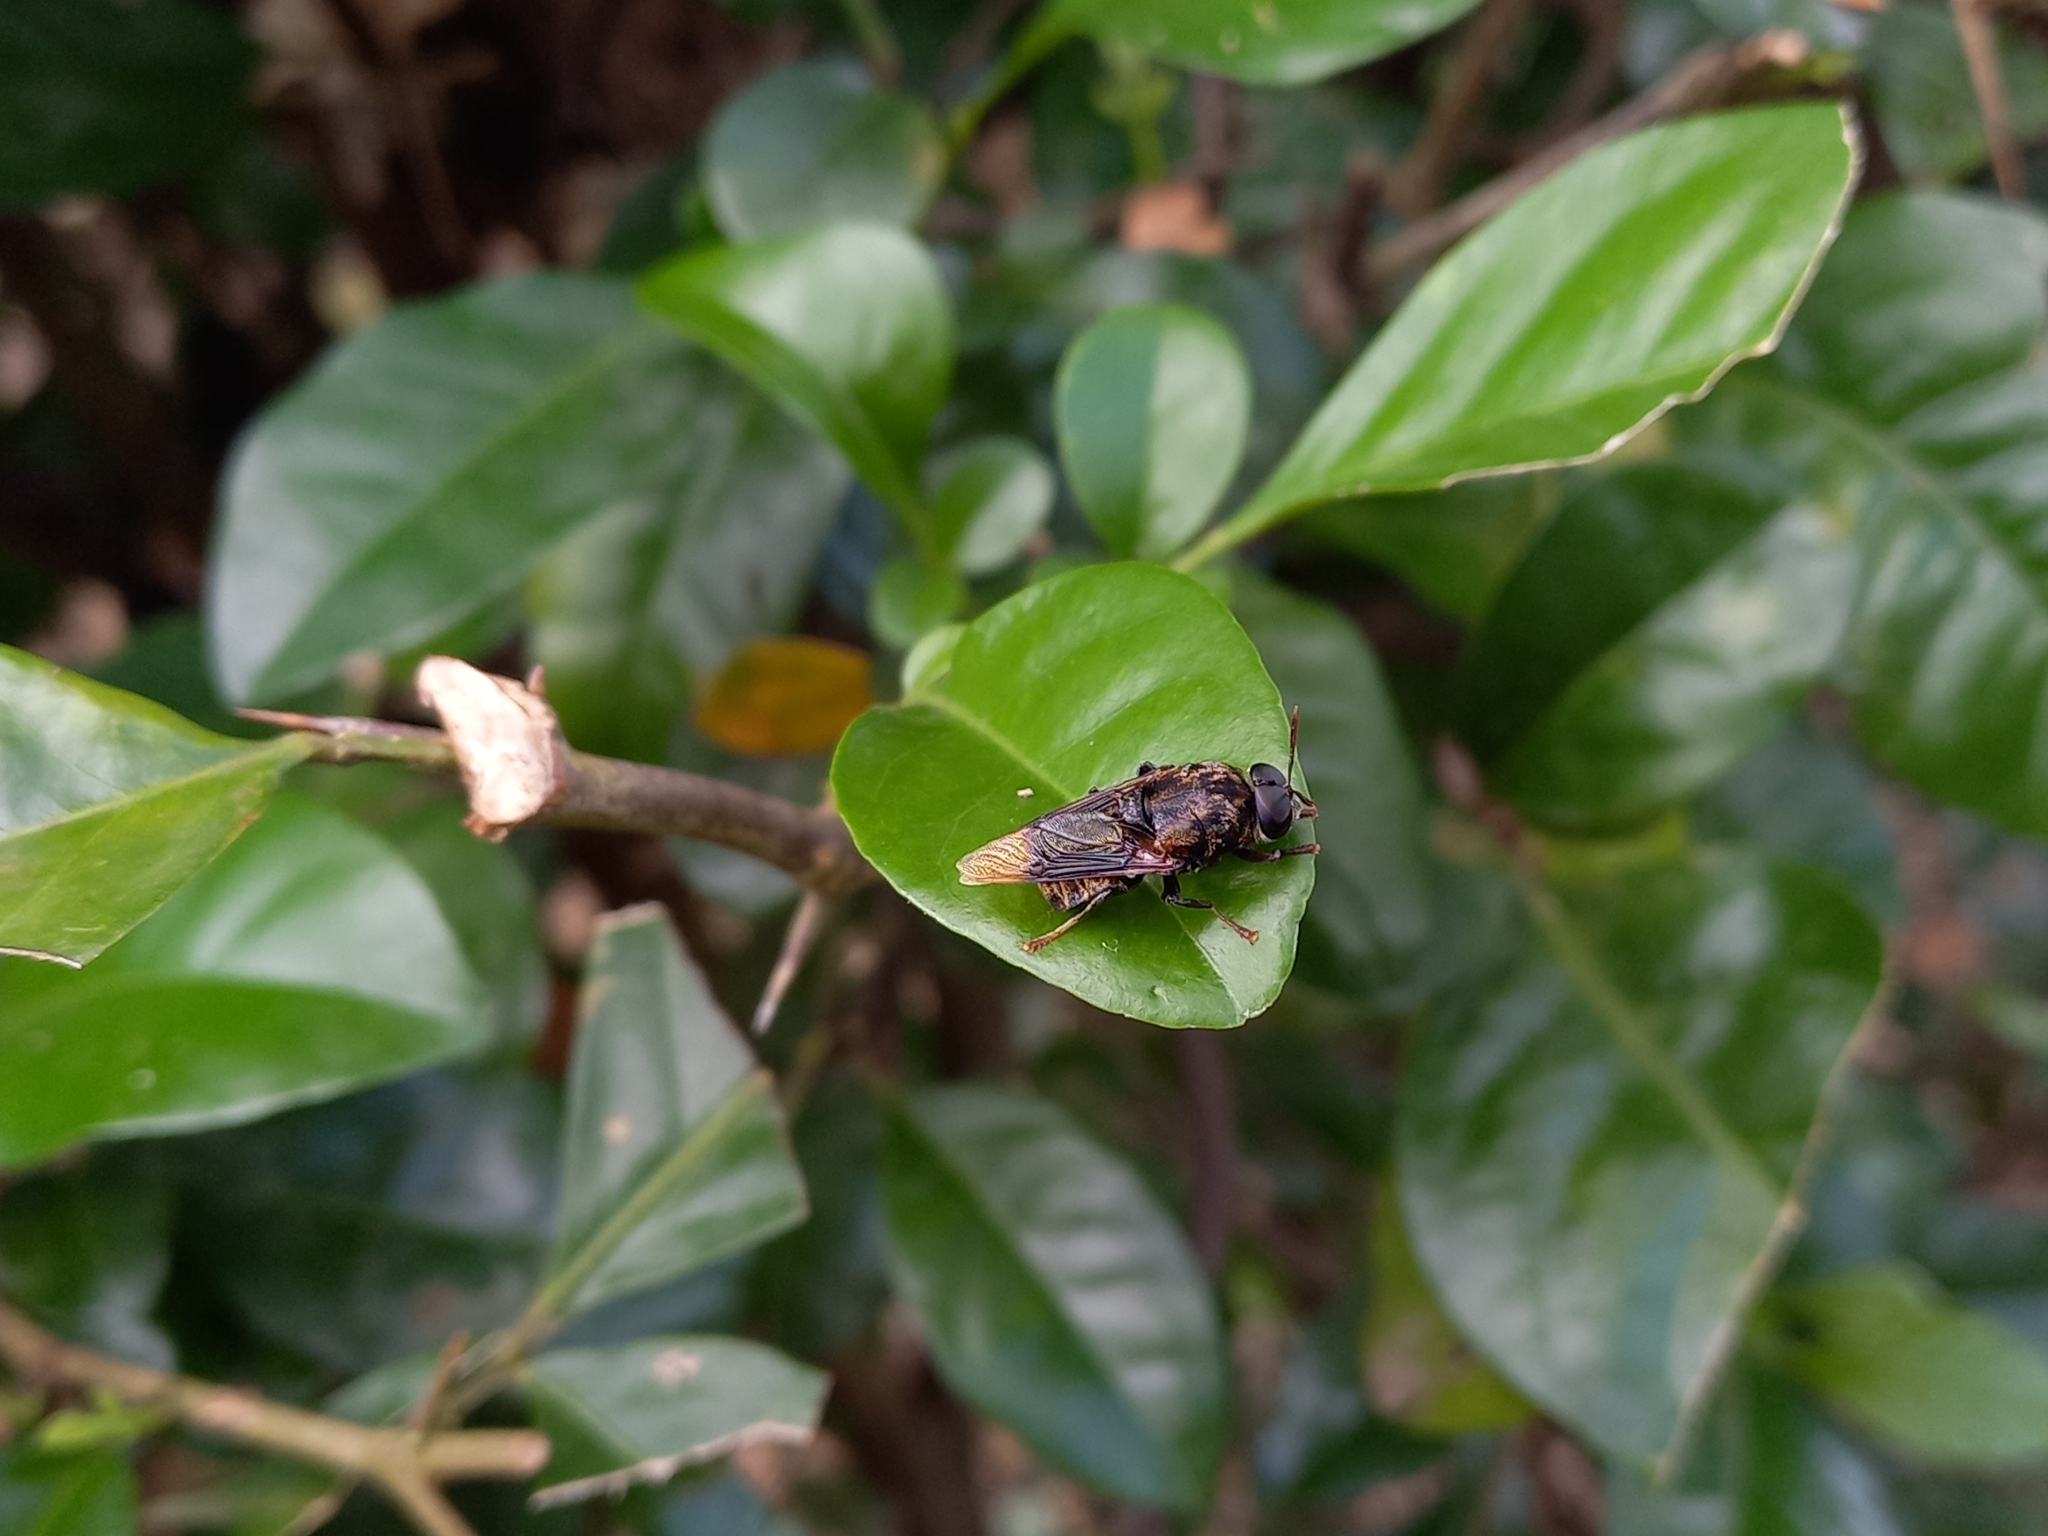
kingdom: Animalia
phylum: Arthropoda
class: Insecta
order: Diptera
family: Stratiomyidae
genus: Stratiomys
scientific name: Stratiomys constricta
